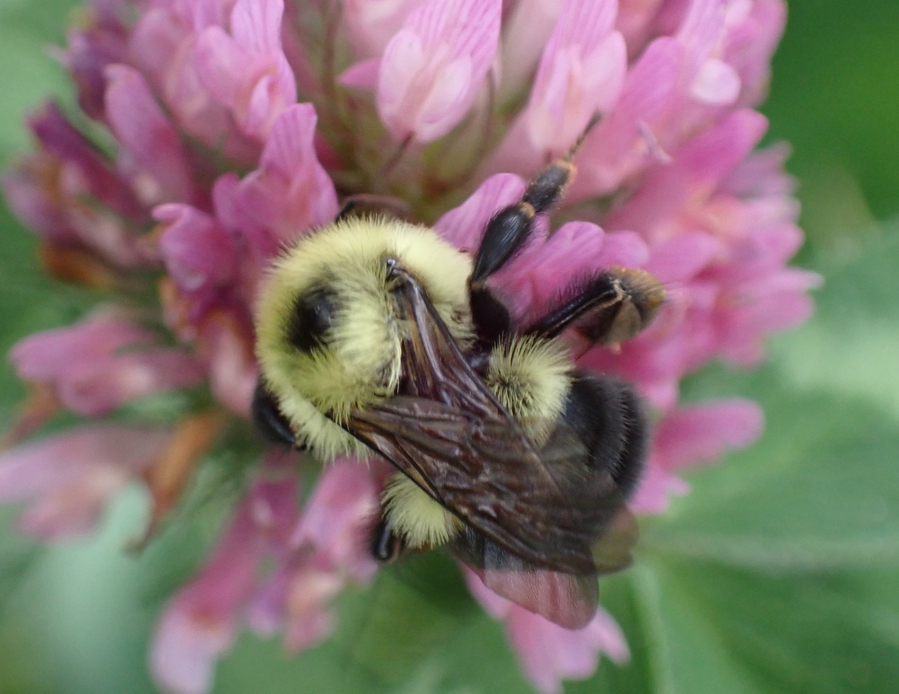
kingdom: Animalia
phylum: Arthropoda
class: Insecta
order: Hymenoptera
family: Apidae
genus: Bombus
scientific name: Bombus bimaculatus
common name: Two-spotted bumble bee
